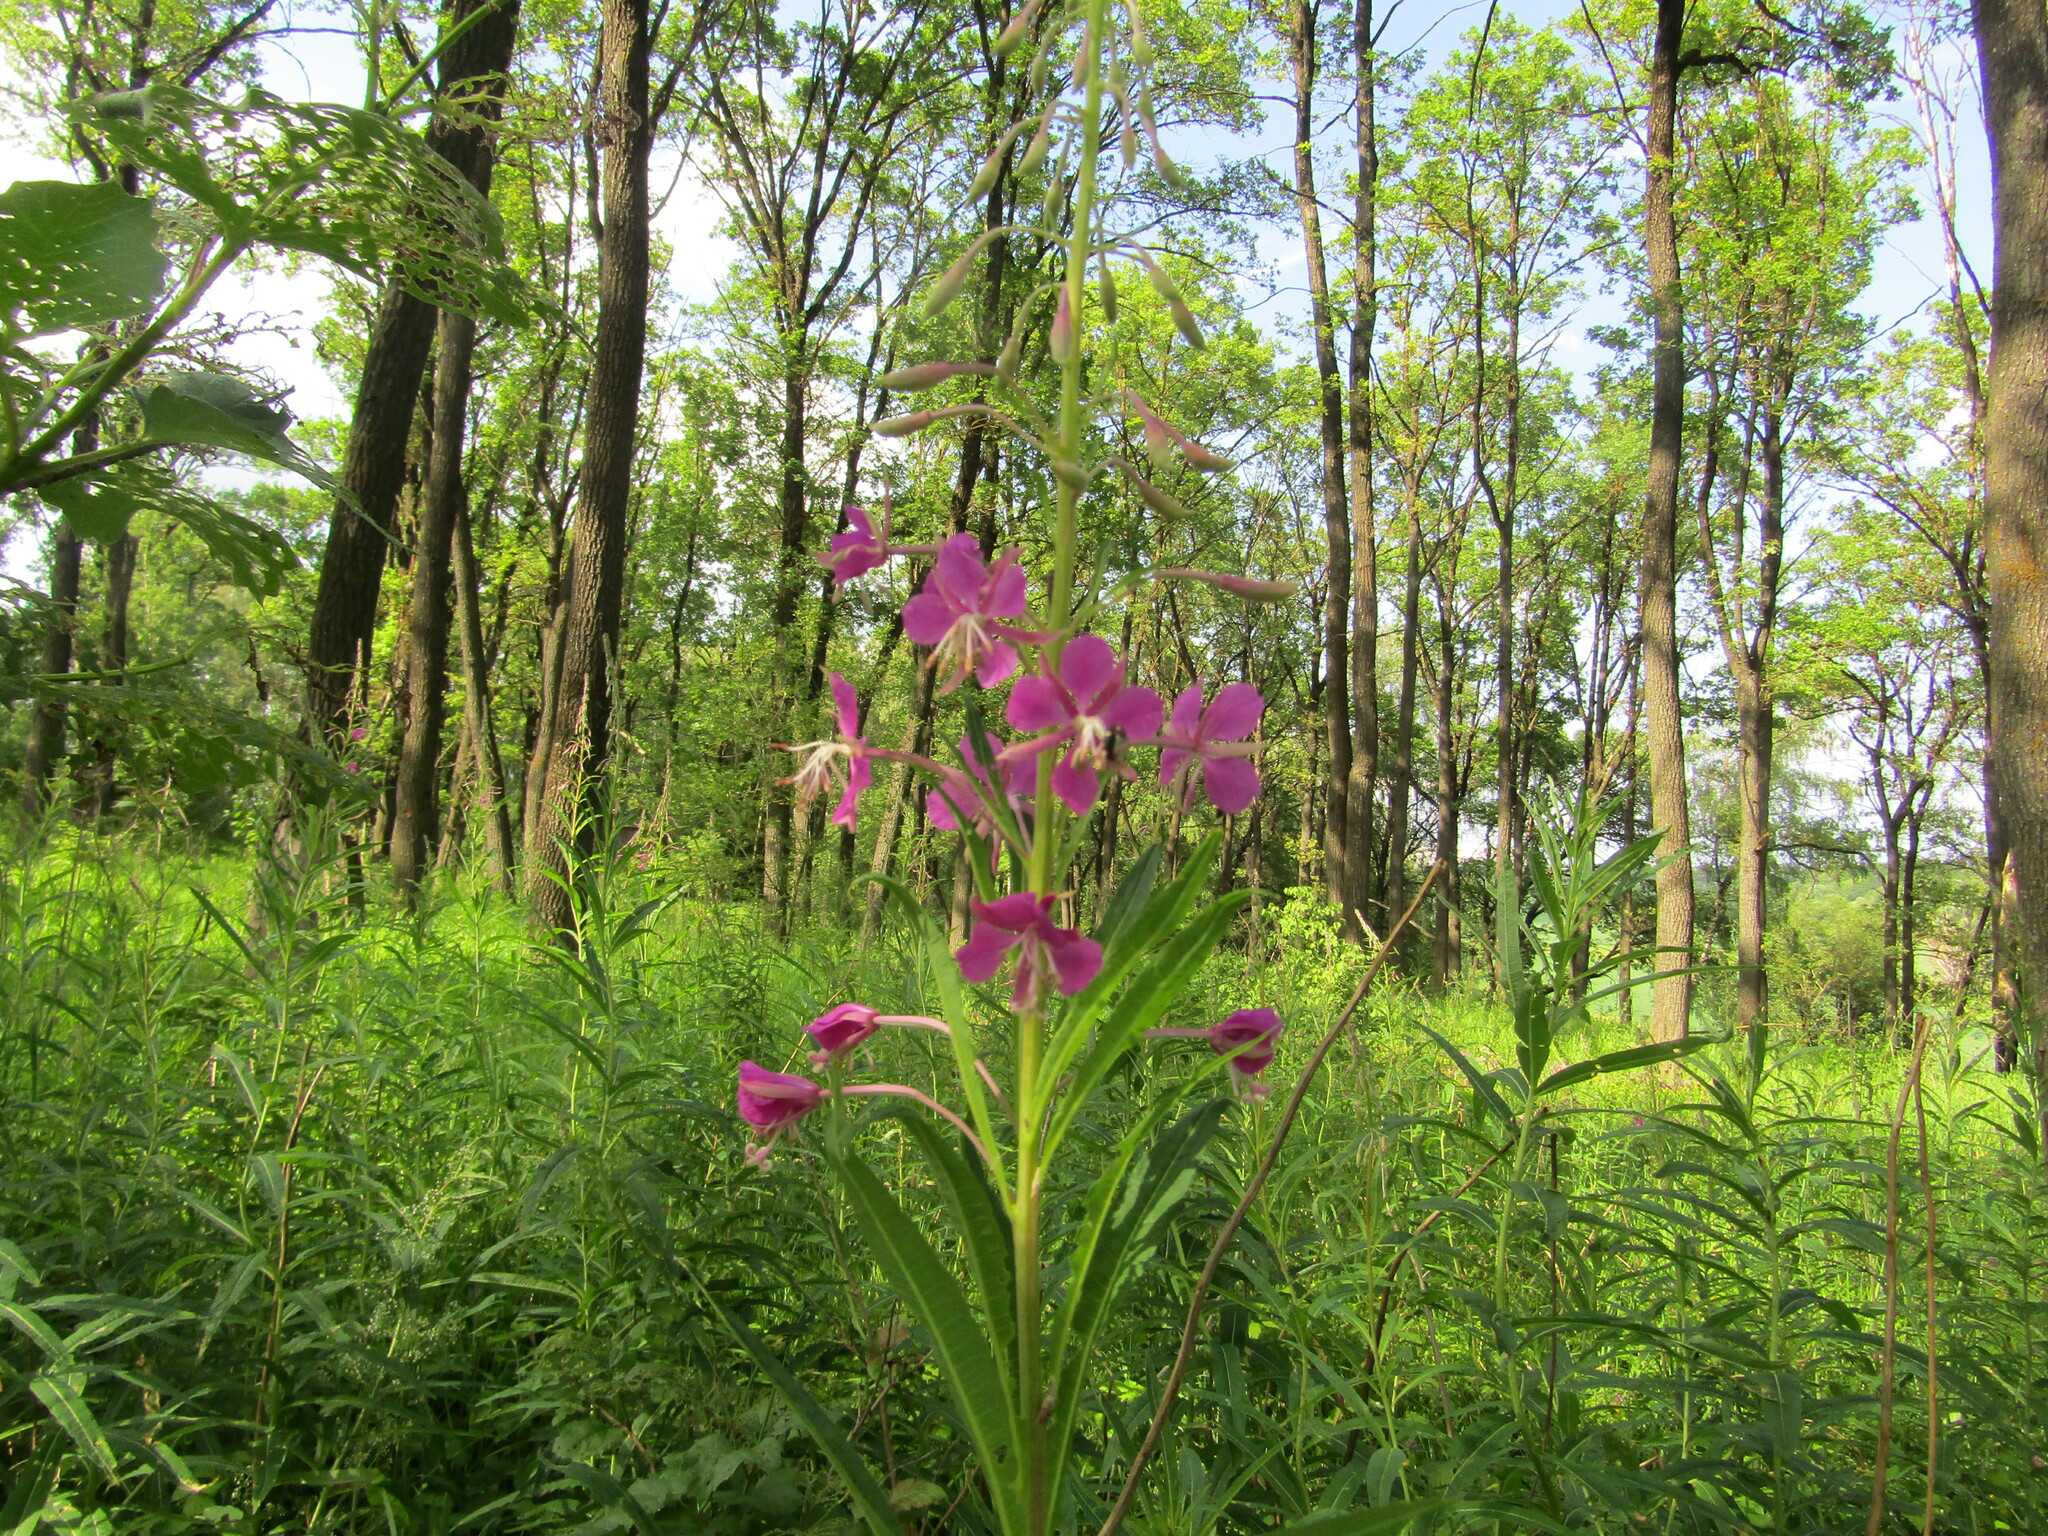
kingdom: Plantae
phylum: Tracheophyta
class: Magnoliopsida
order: Myrtales
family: Onagraceae
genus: Chamaenerion
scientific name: Chamaenerion angustifolium
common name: Fireweed
